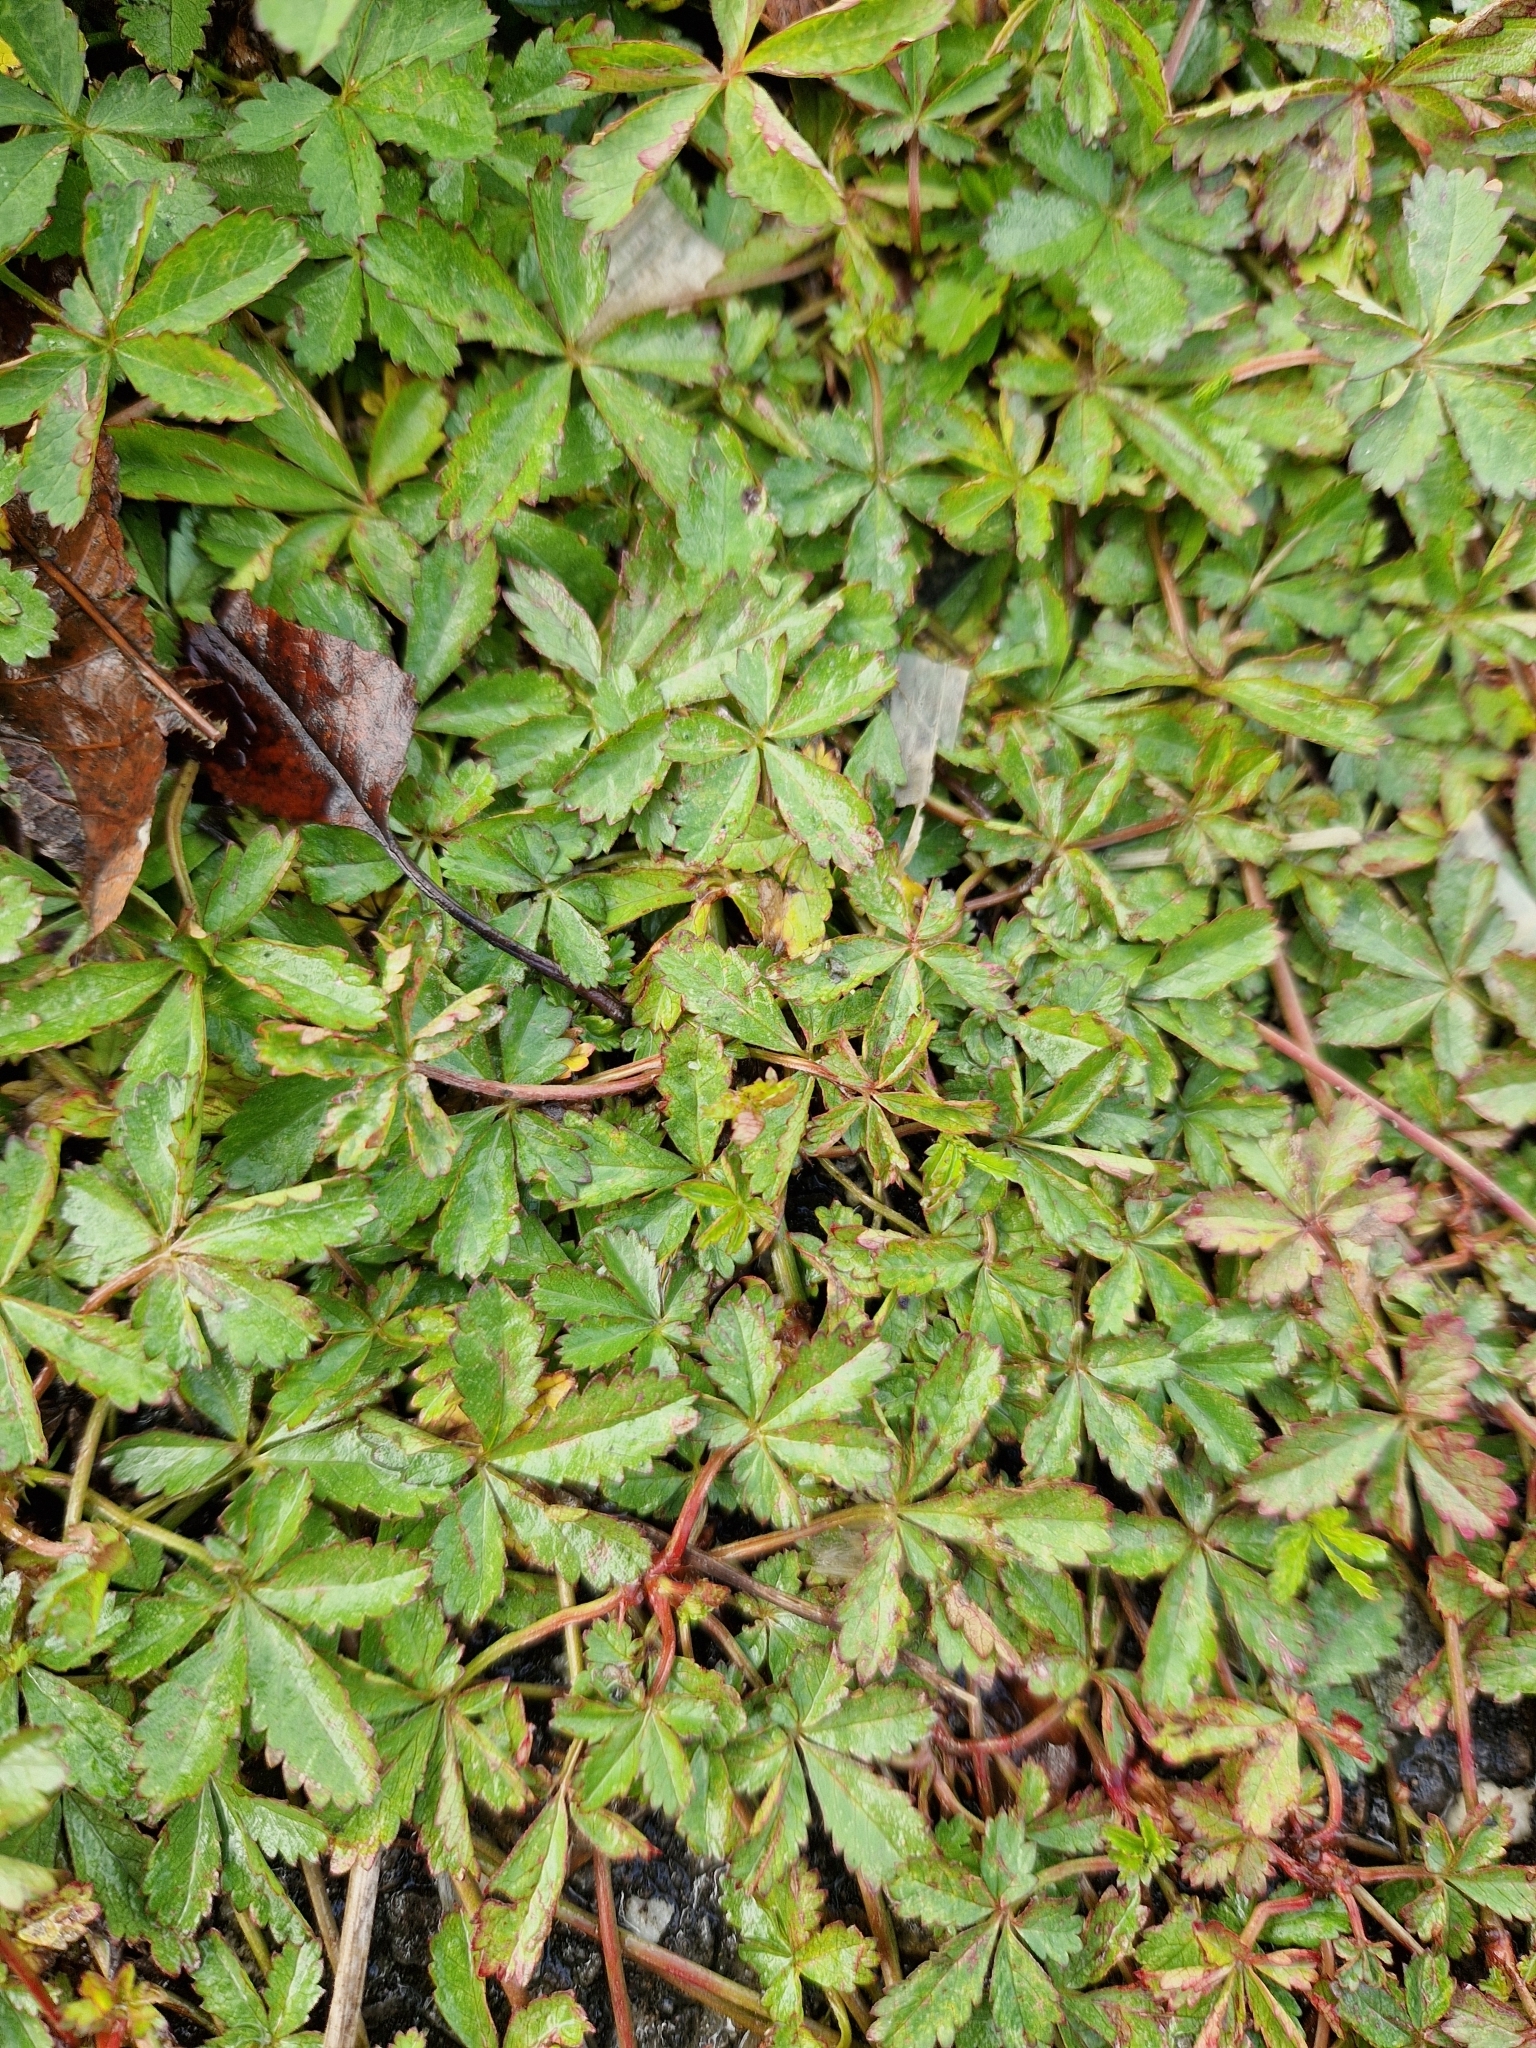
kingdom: Plantae
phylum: Tracheophyta
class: Magnoliopsida
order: Rosales
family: Rosaceae
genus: Potentilla
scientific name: Potentilla reptans
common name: Creeping cinquefoil
